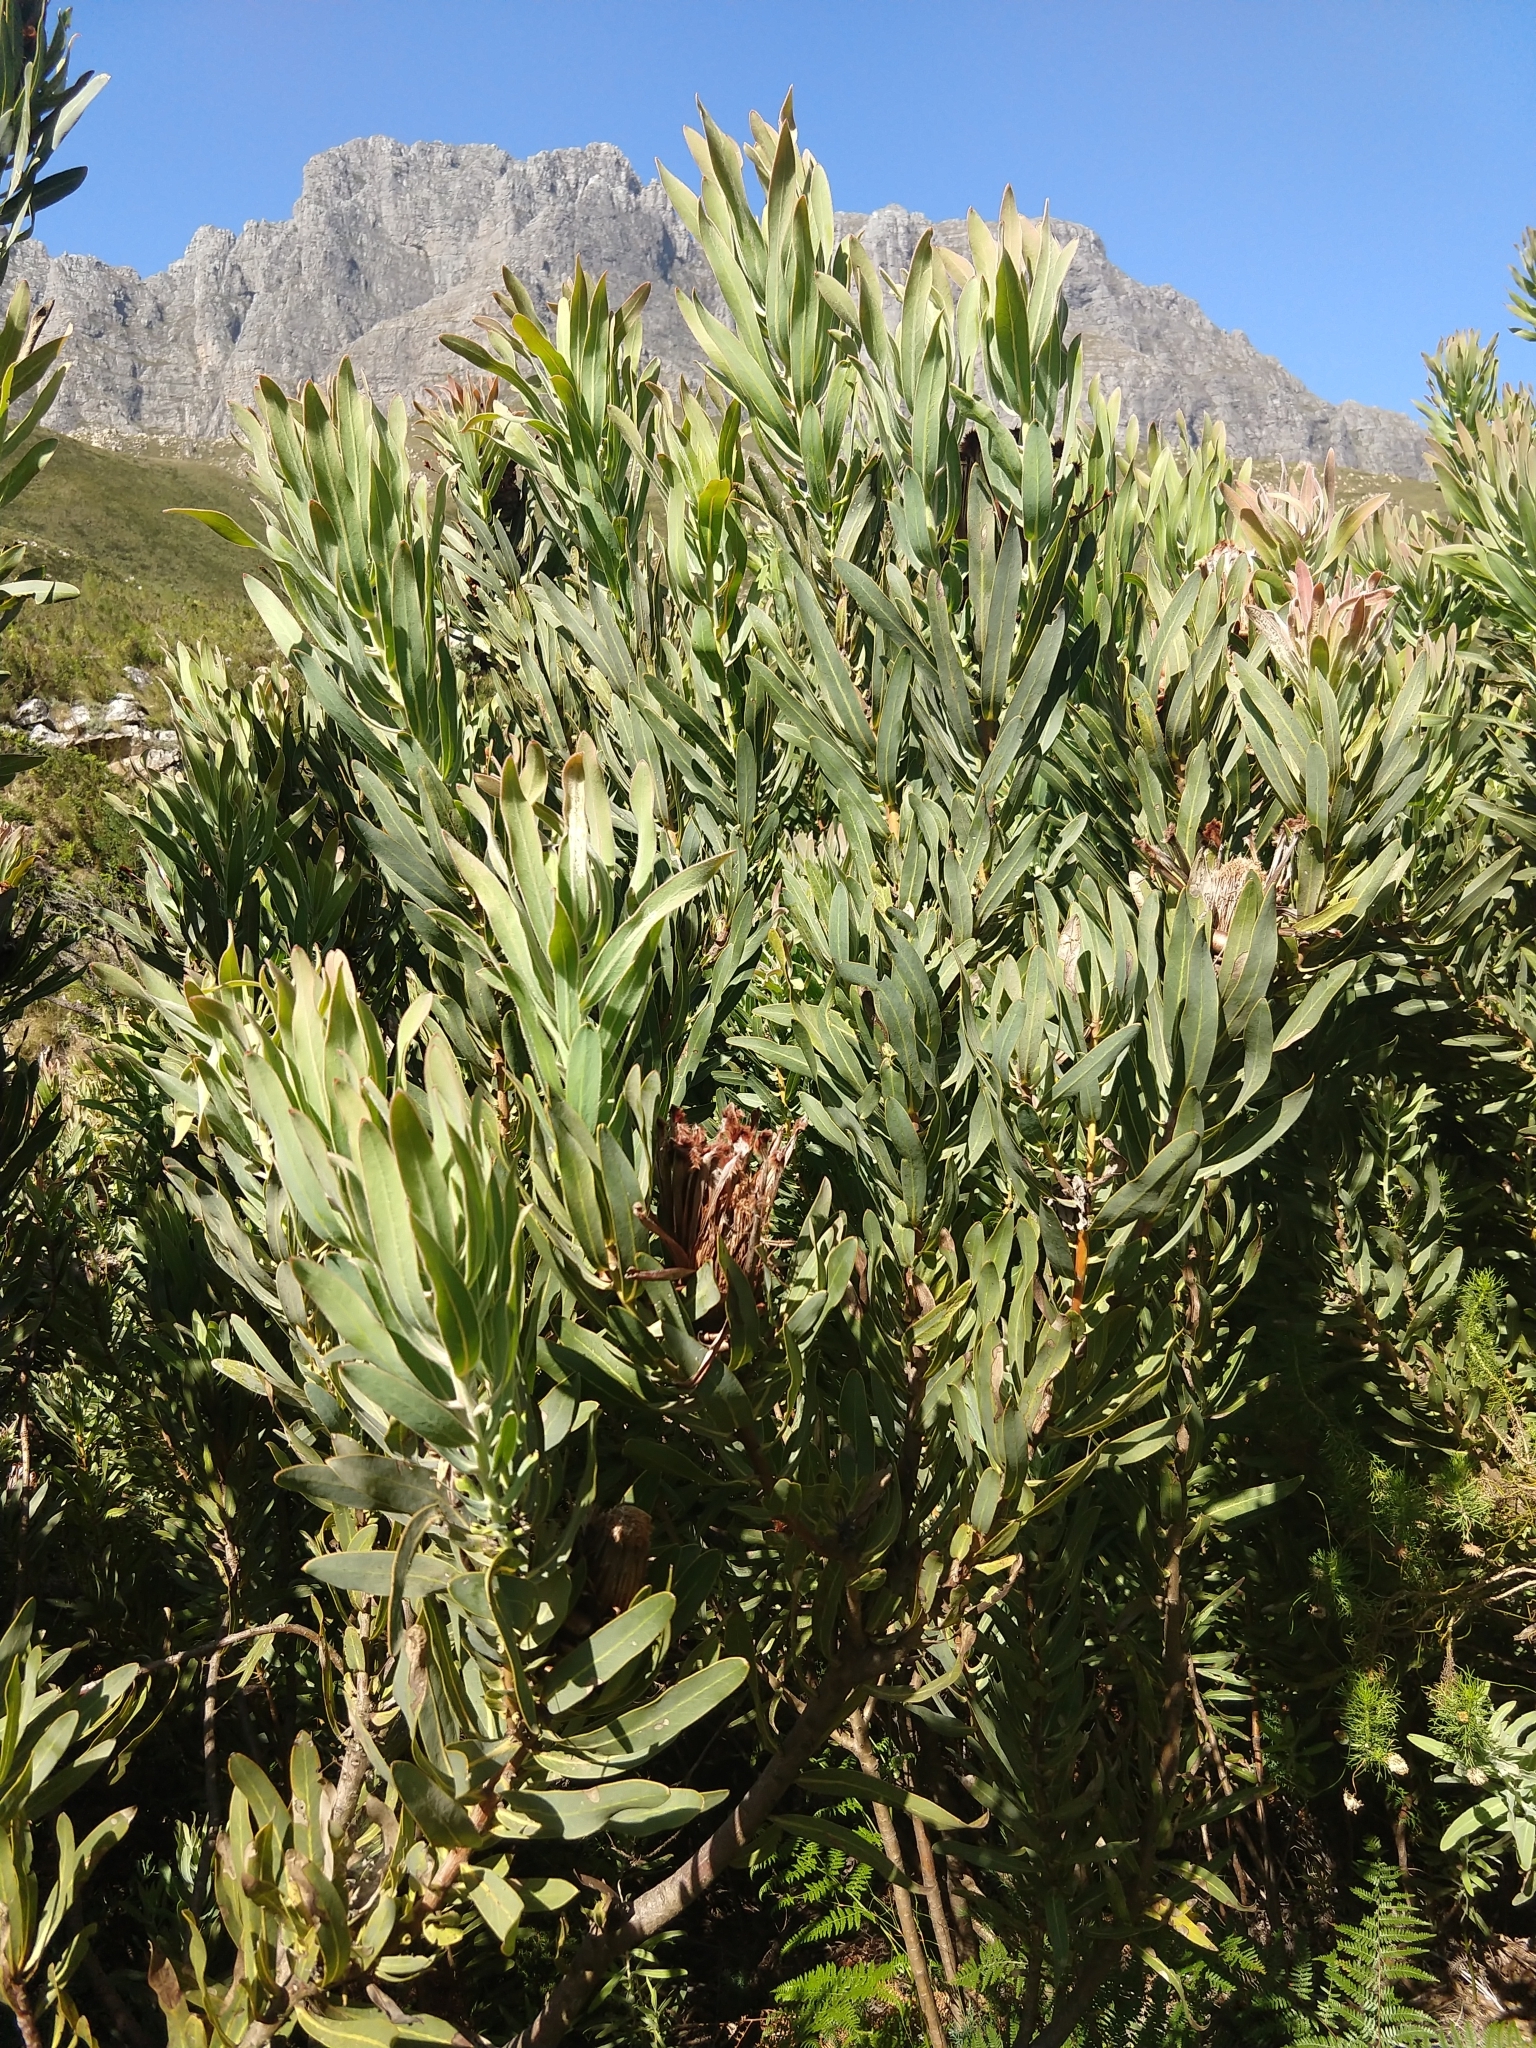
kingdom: Plantae
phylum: Tracheophyta
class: Magnoliopsida
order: Proteales
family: Proteaceae
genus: Protea
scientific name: Protea neriifolia
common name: Blue sugarbush
